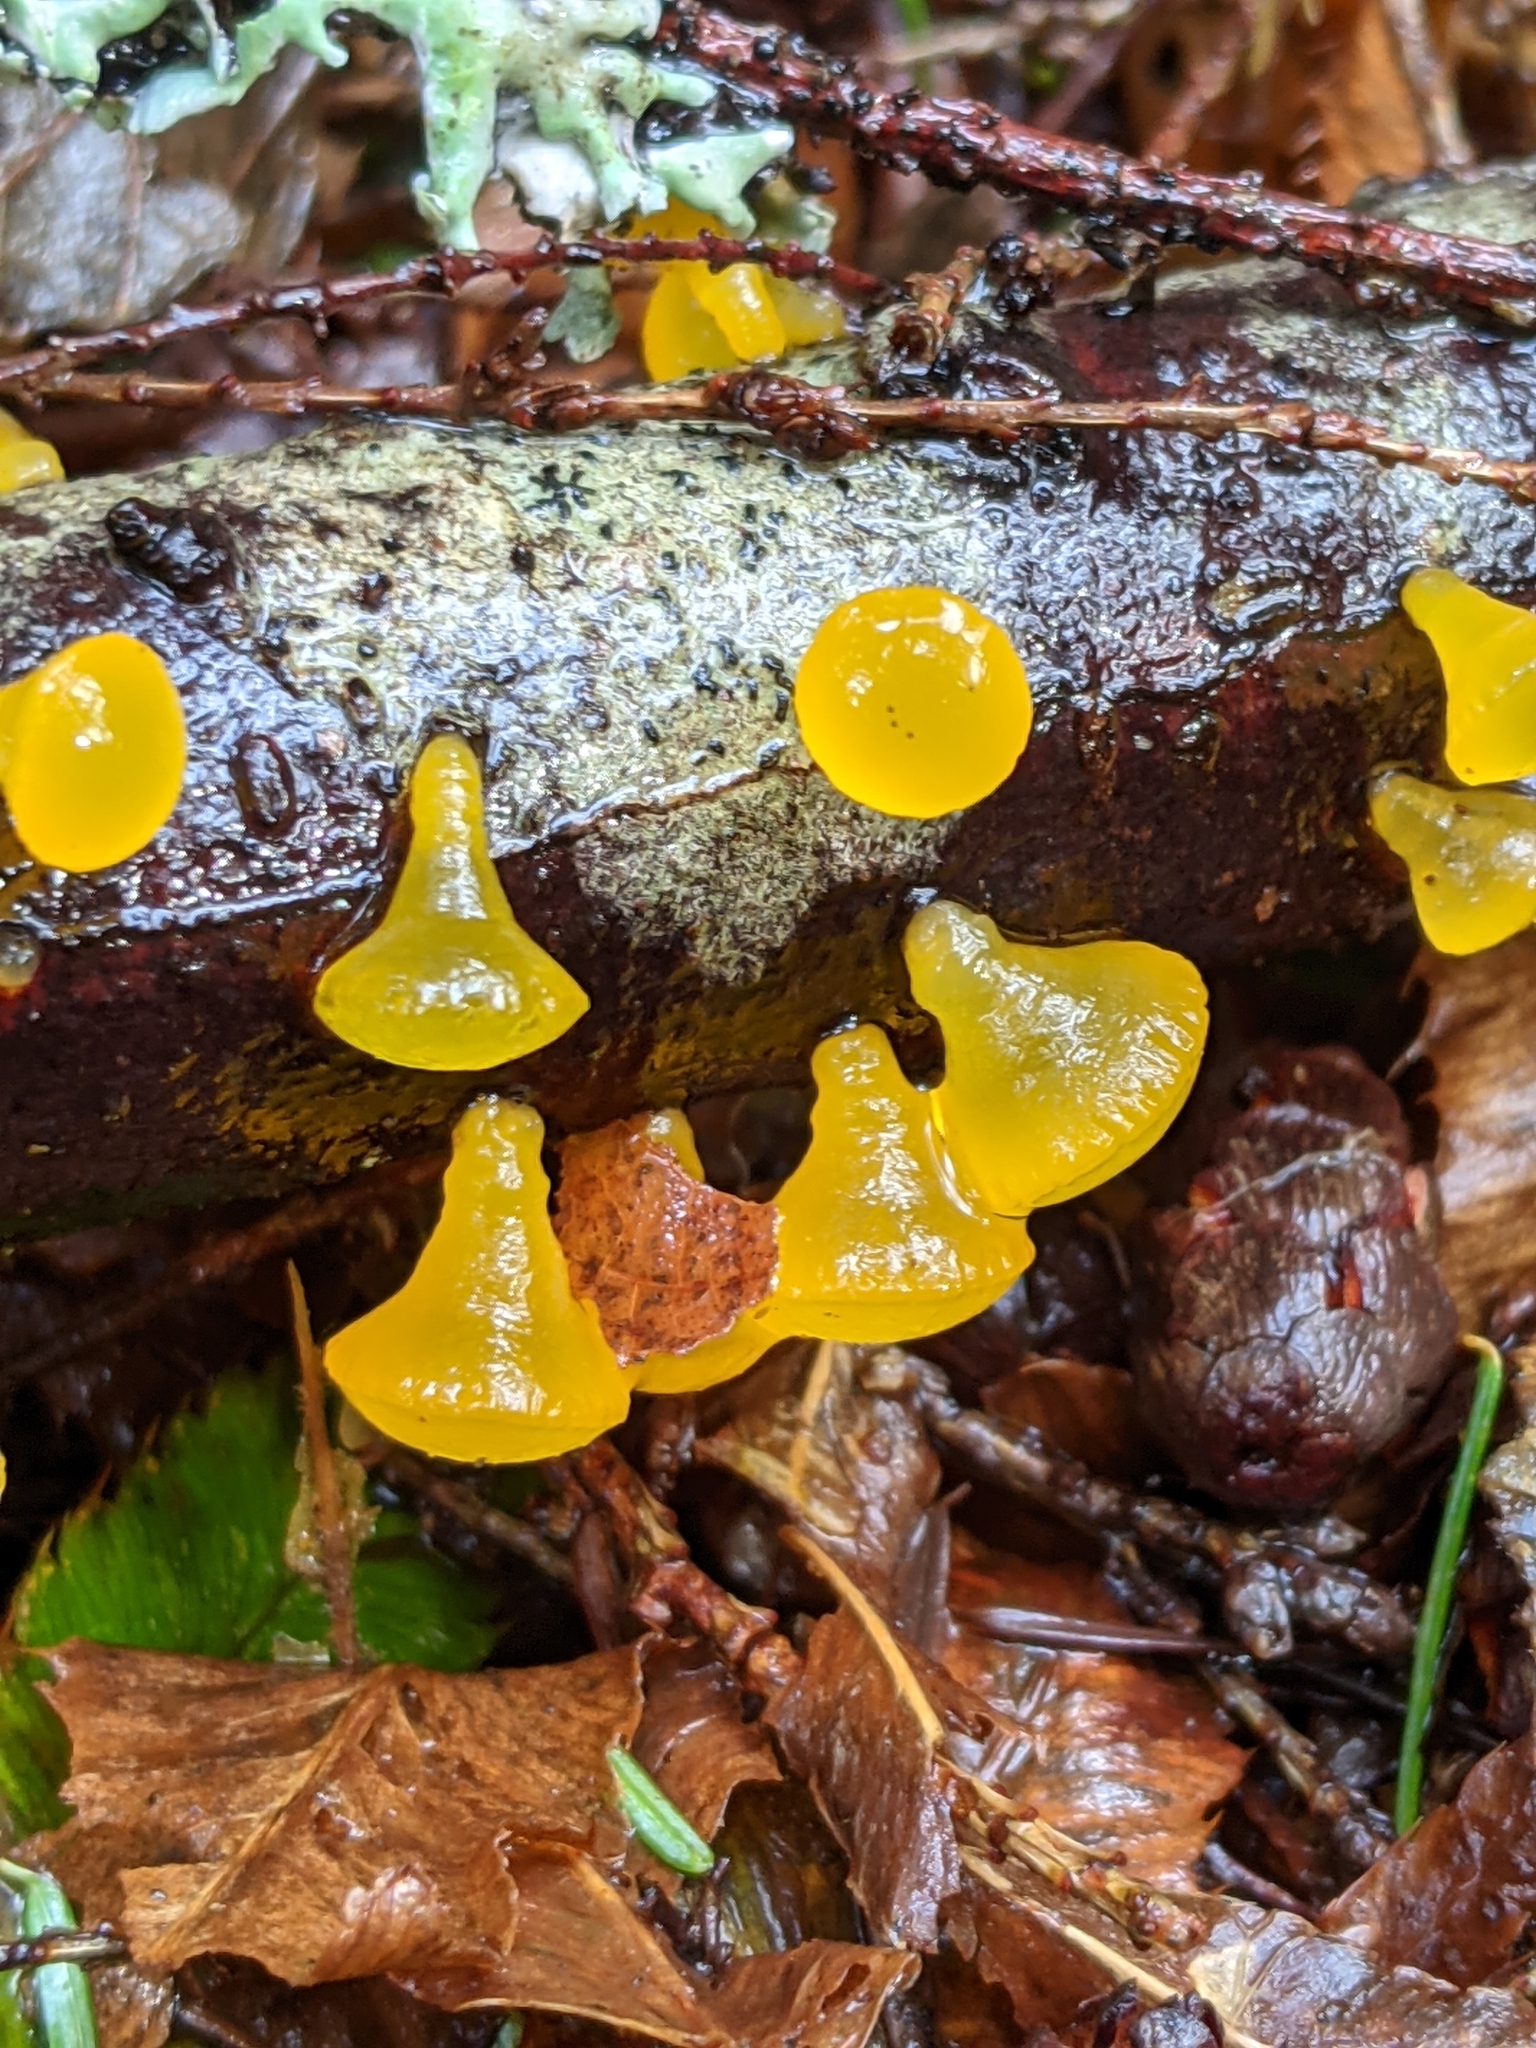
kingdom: Fungi
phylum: Basidiomycota
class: Dacrymycetes
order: Dacrymycetales
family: Dacrymycetaceae
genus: Guepiniopsis
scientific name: Guepiniopsis alpina
